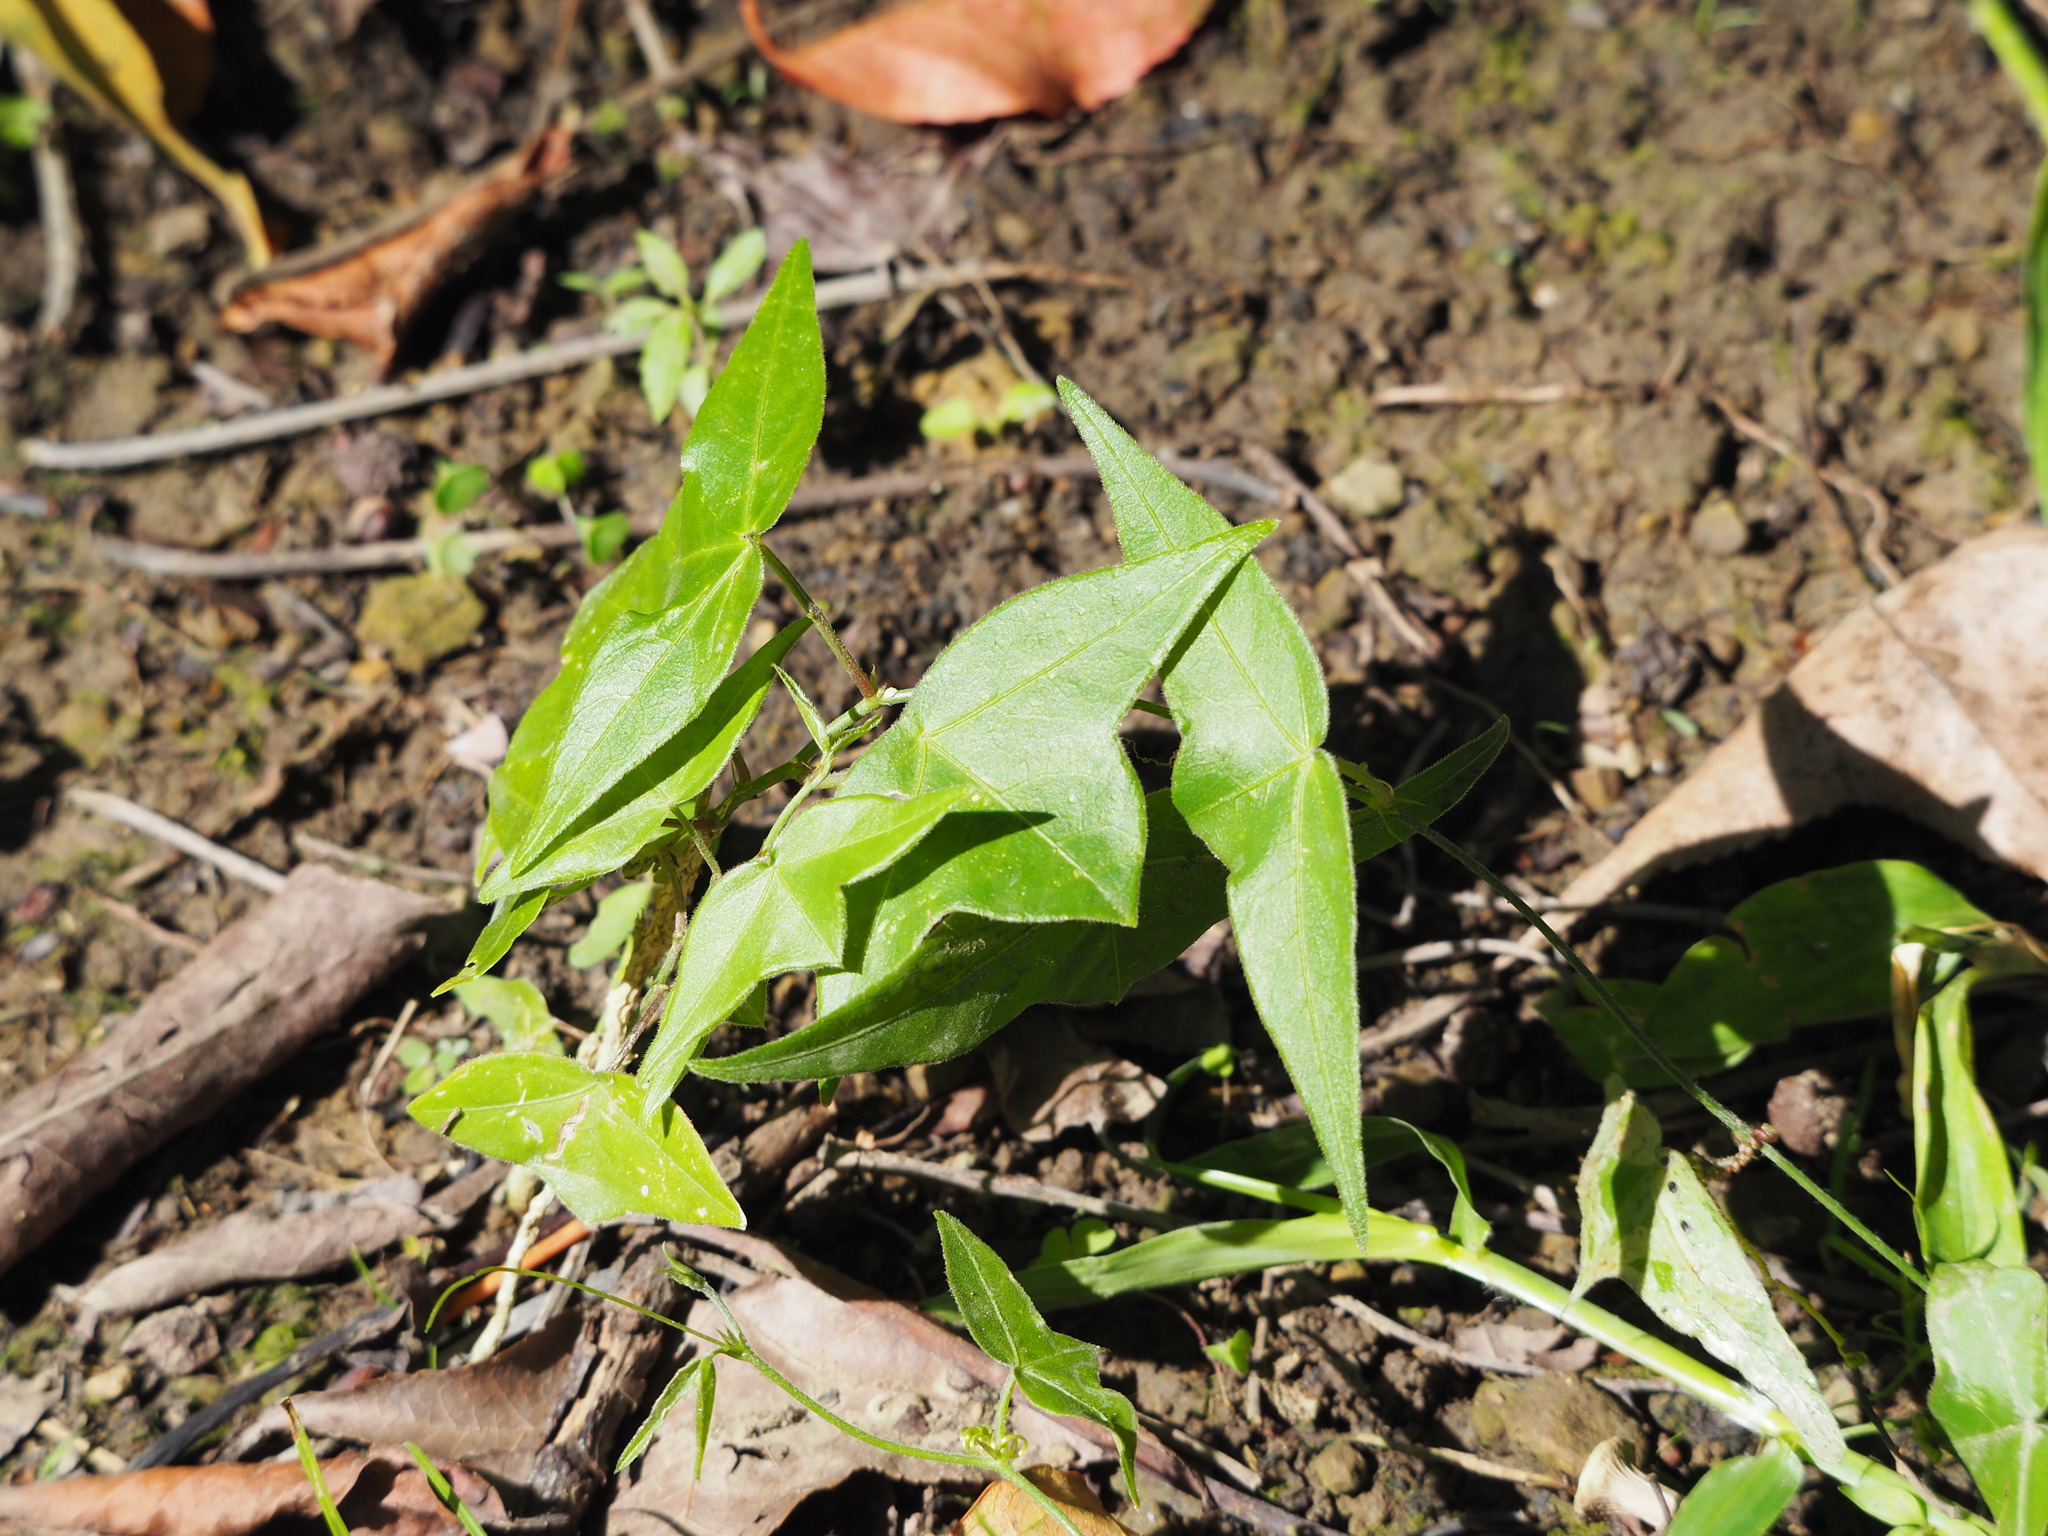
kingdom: Plantae
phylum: Tracheophyta
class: Magnoliopsida
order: Malpighiales
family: Passifloraceae
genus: Passiflora
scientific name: Passiflora suberosa
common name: Wild passionfruit
